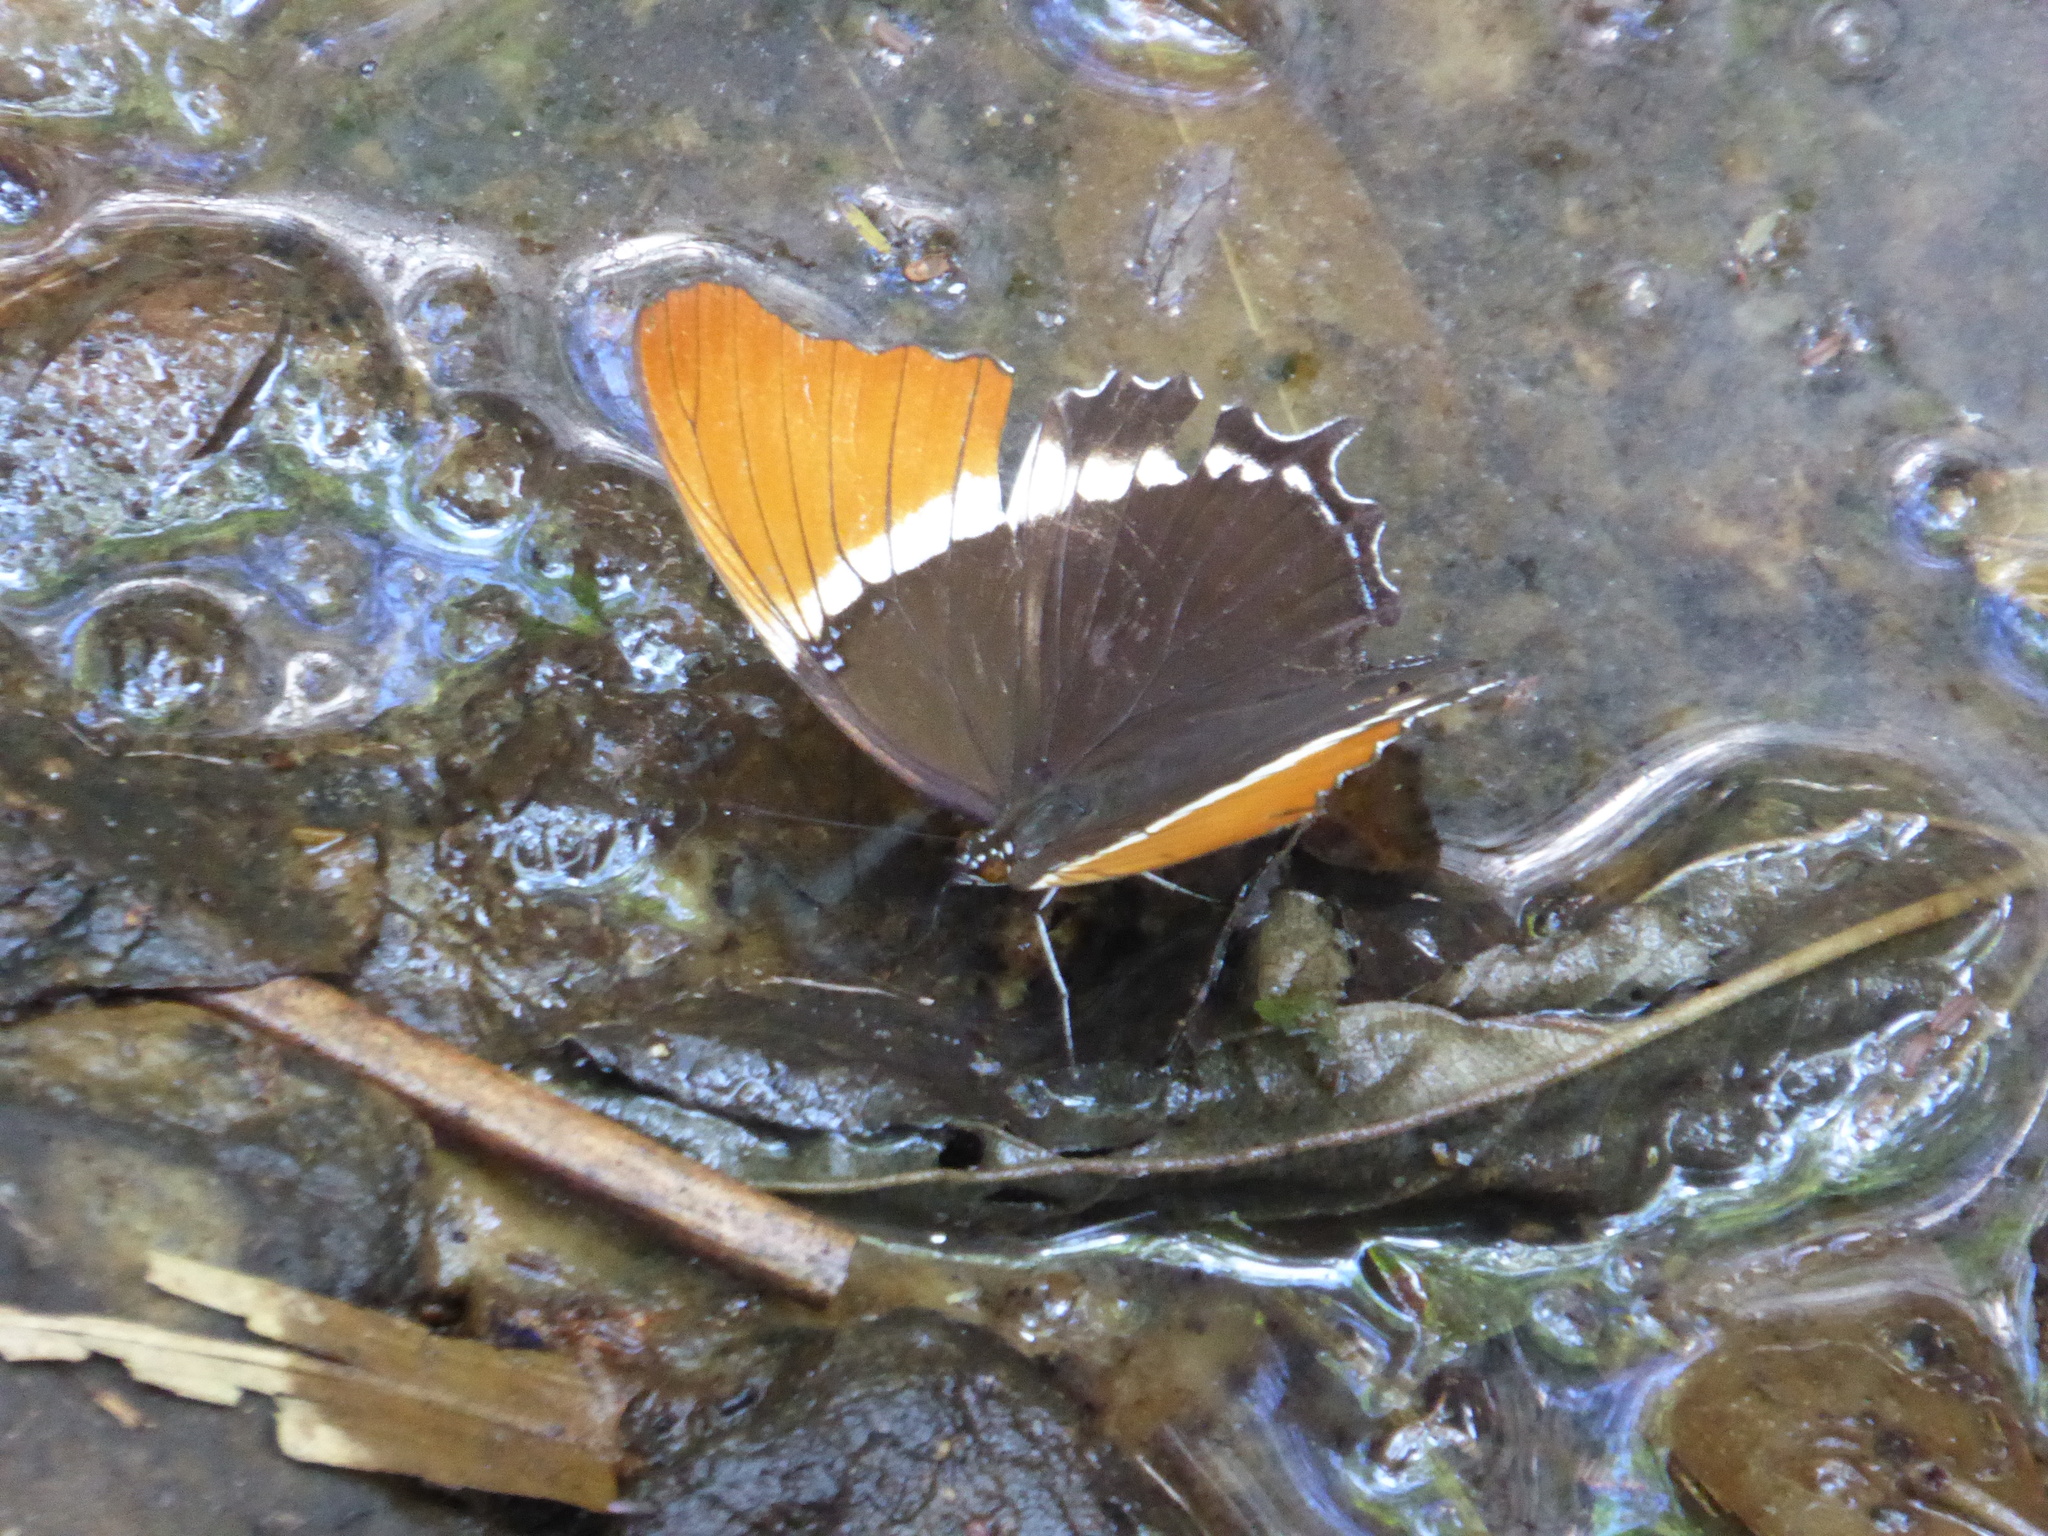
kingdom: Animalia
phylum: Arthropoda
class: Insecta
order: Lepidoptera
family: Nymphalidae
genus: Siproeta
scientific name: Siproeta epaphus
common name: Rusty-tipped page
